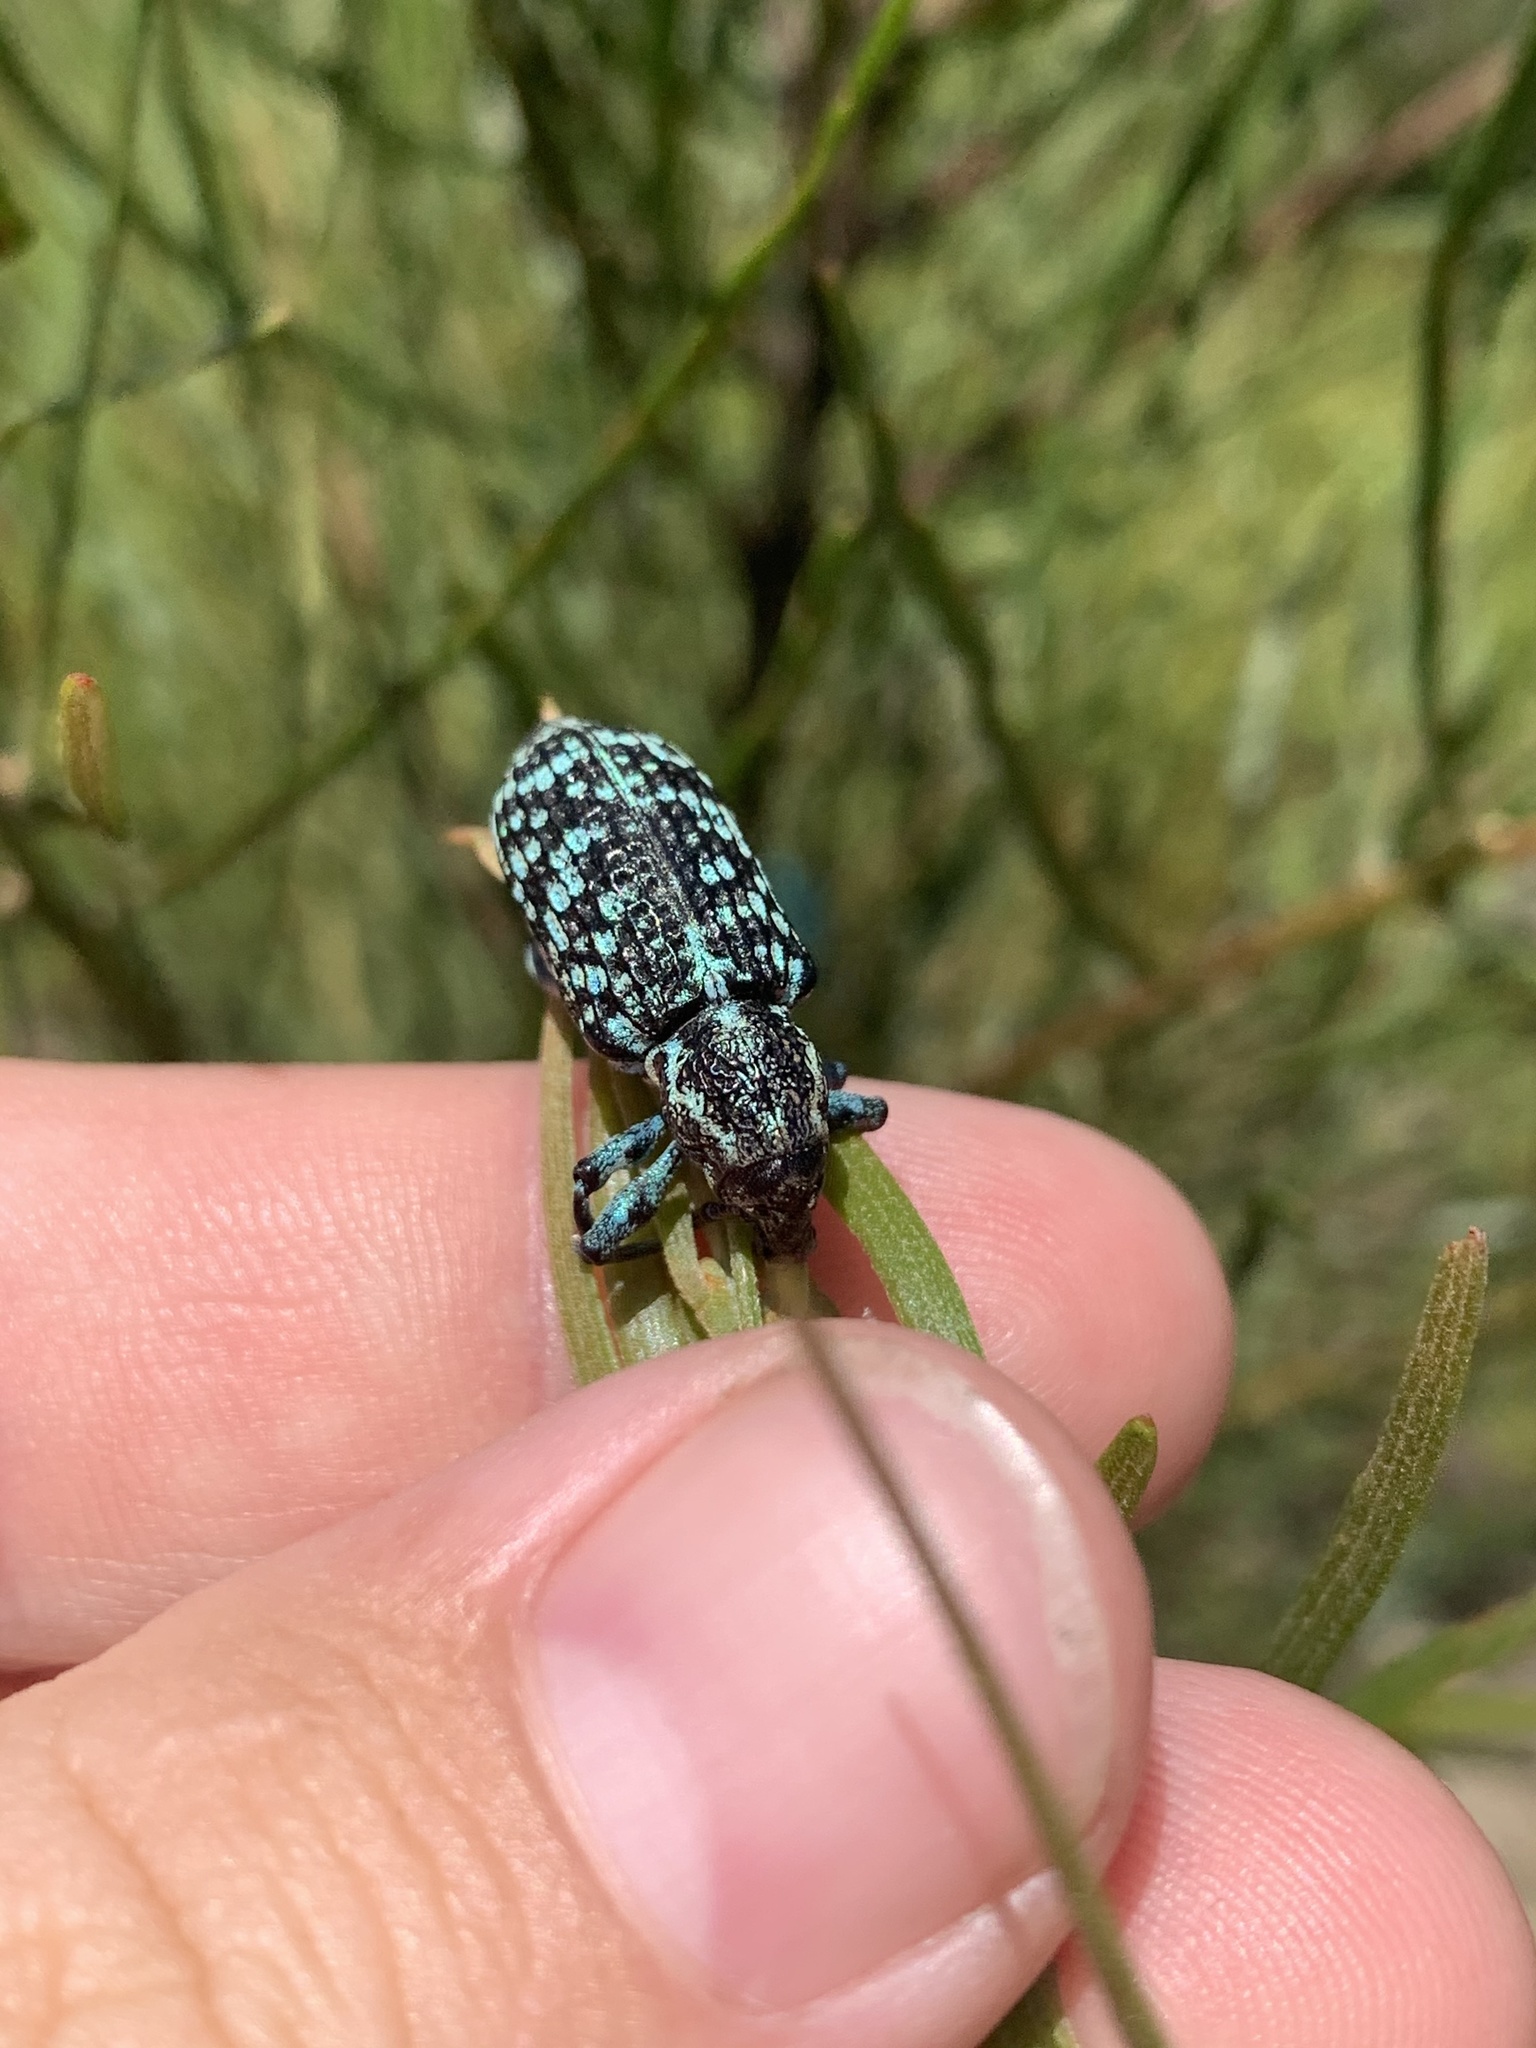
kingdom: Animalia
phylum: Arthropoda
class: Insecta
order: Coleoptera
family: Curculionidae
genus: Chrysolopus
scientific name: Chrysolopus spectabilis
